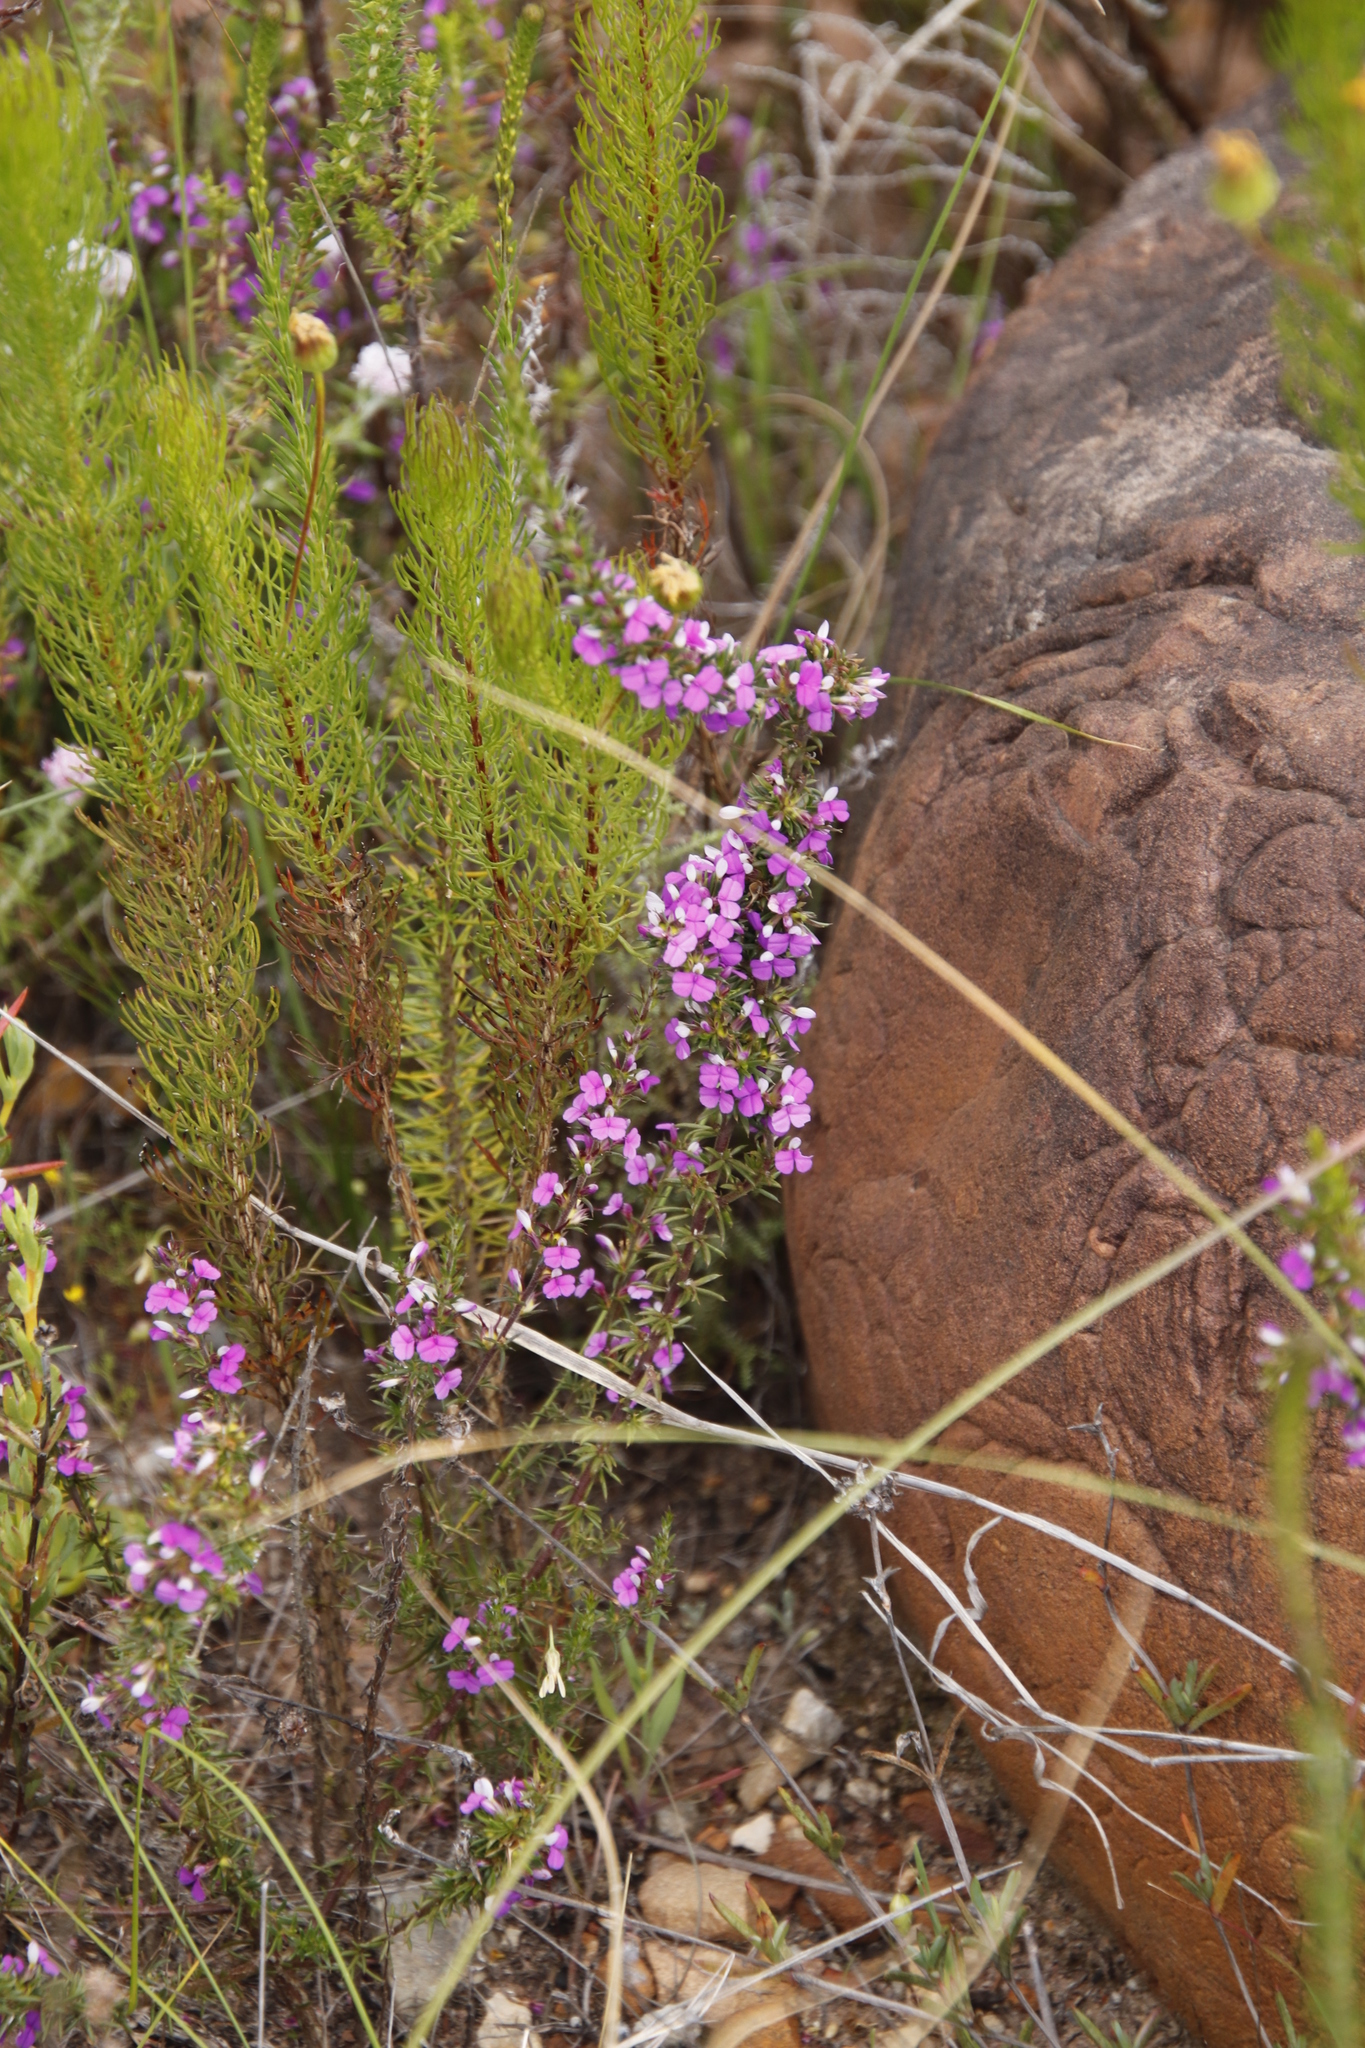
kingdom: Plantae
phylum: Tracheophyta
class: Magnoliopsida
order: Fabales
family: Polygalaceae
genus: Muraltia
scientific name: Muraltia heisteria
